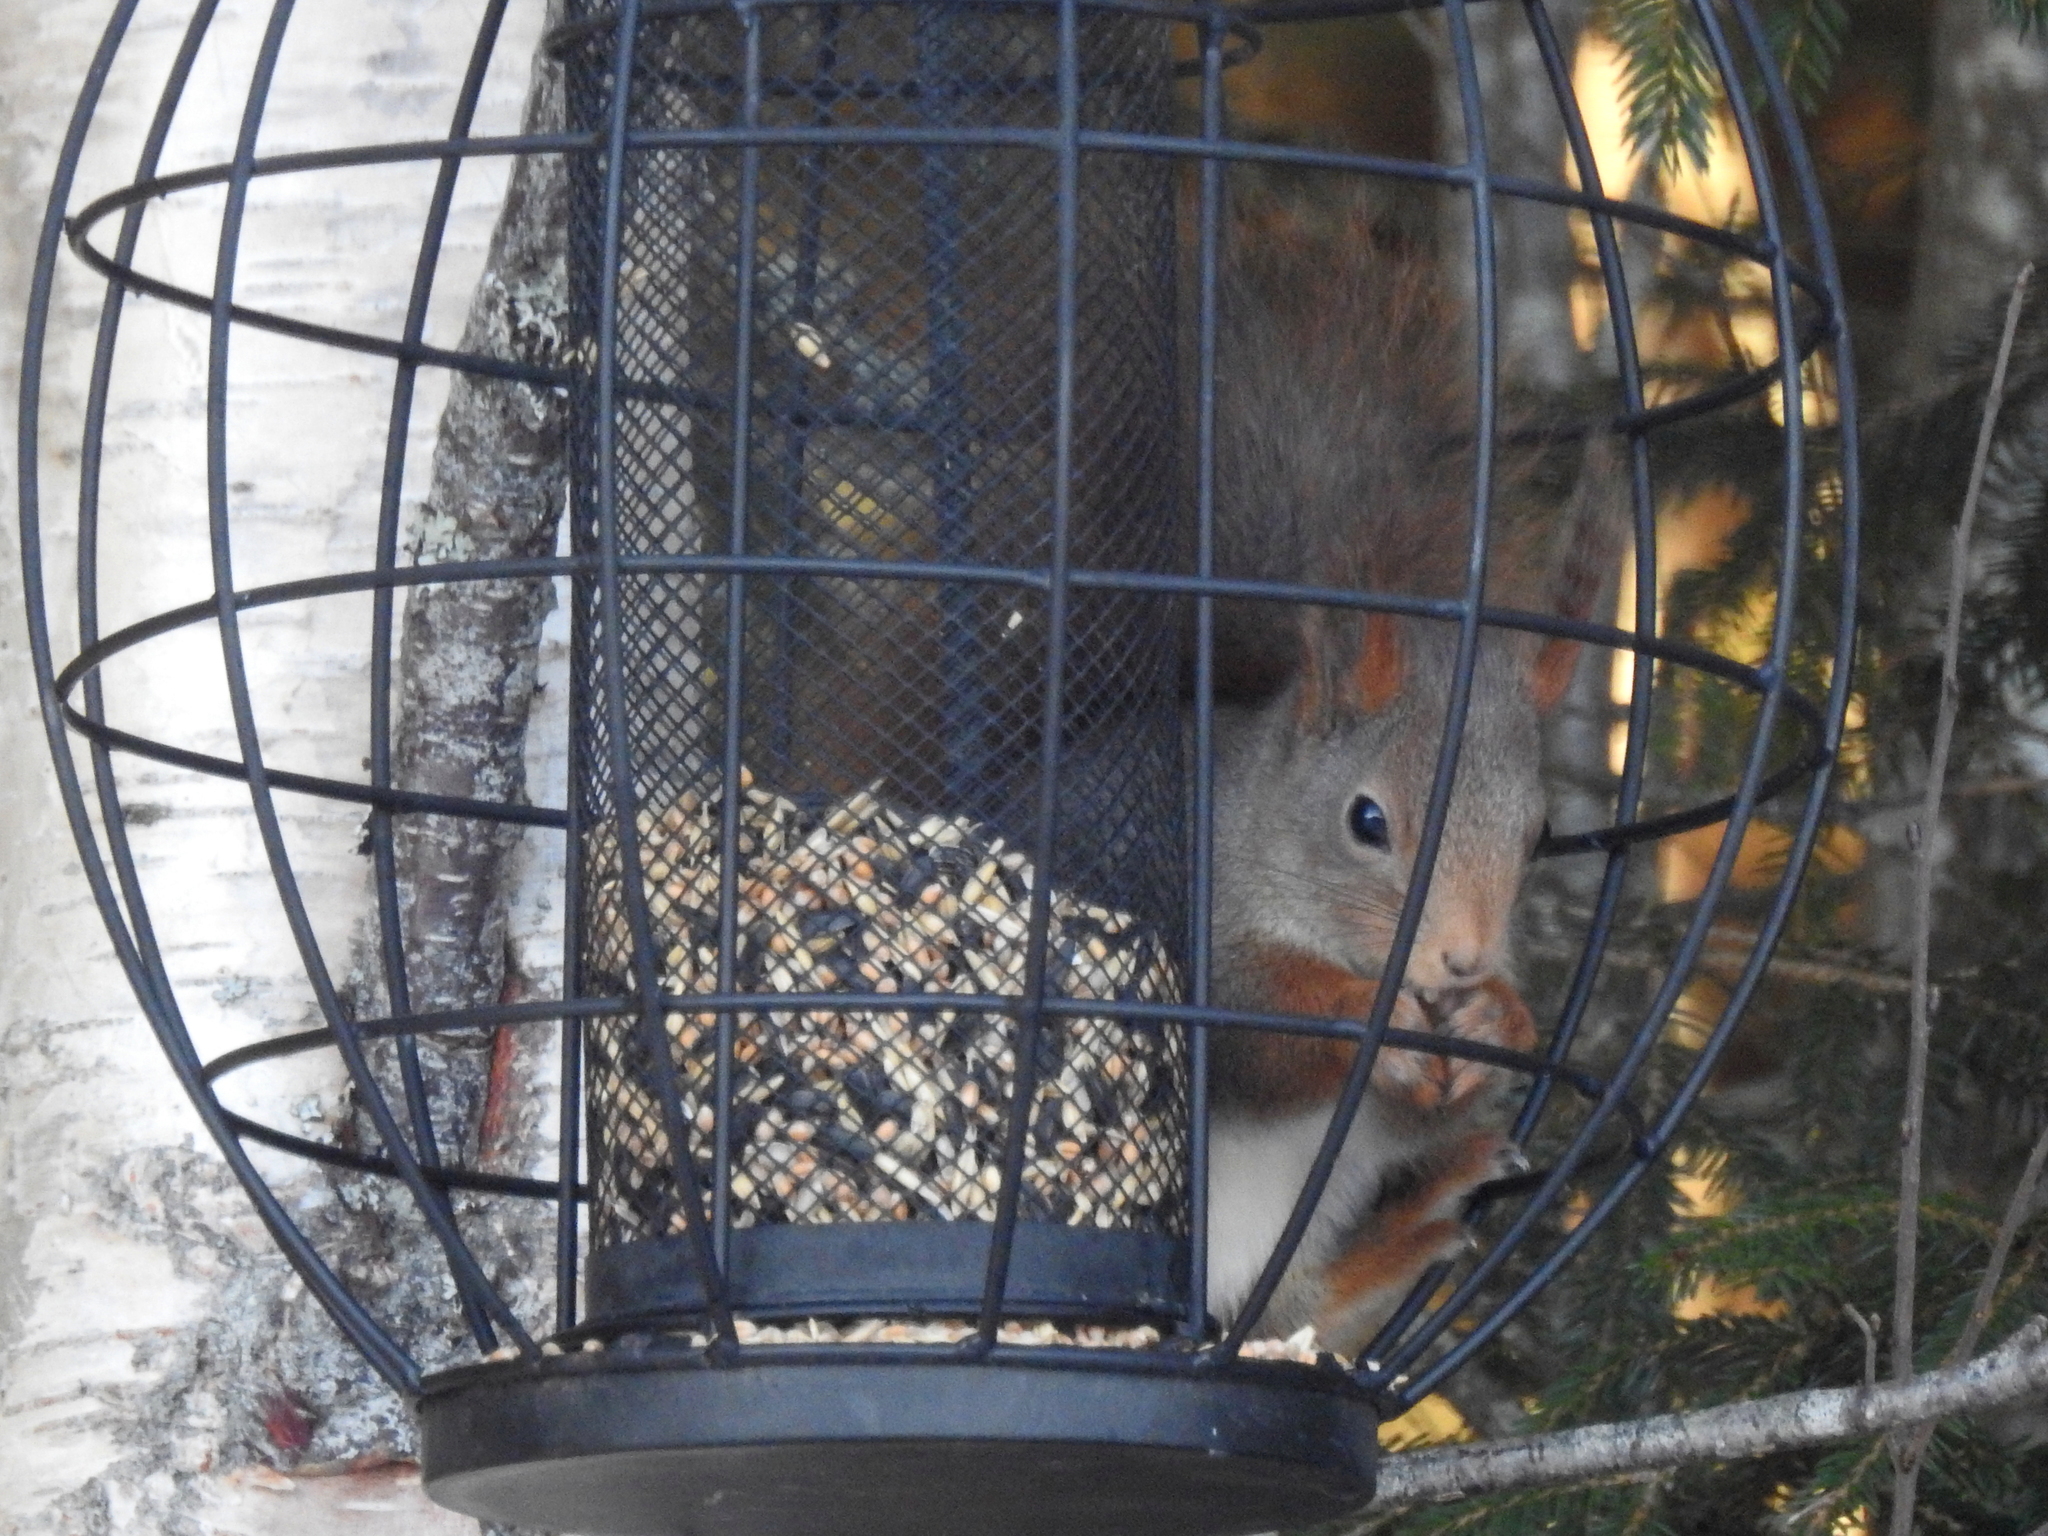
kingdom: Animalia
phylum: Chordata
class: Mammalia
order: Rodentia
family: Sciuridae
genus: Sciurus
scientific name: Sciurus vulgaris
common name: Eurasian red squirrel
